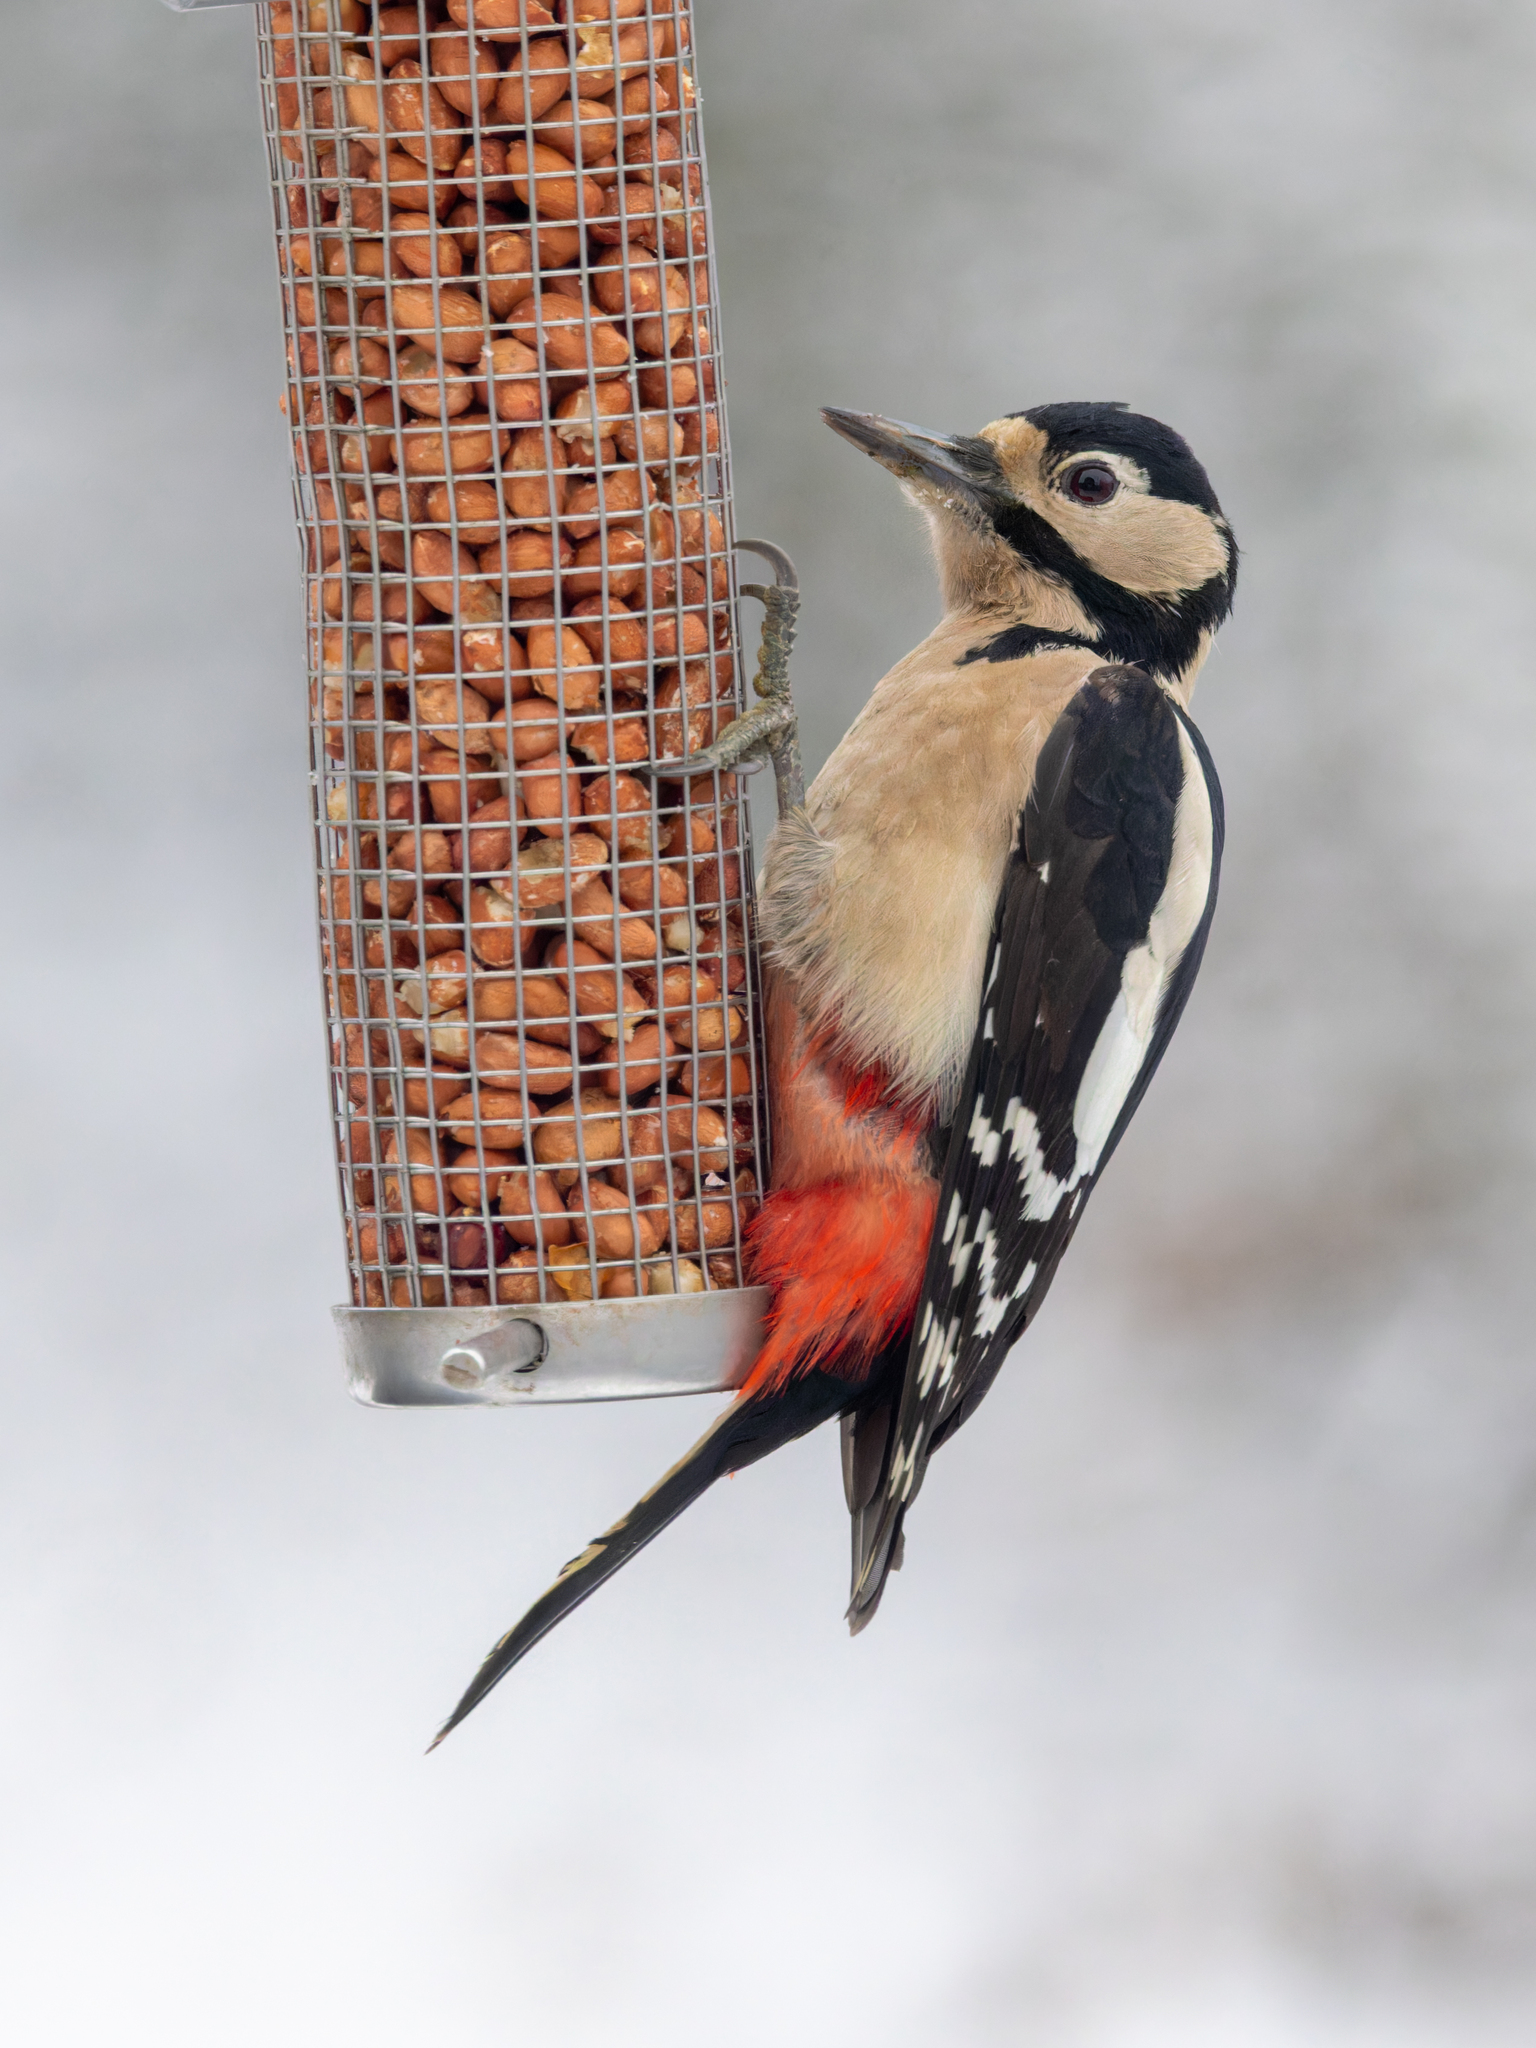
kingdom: Animalia
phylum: Chordata
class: Aves
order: Piciformes
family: Picidae
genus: Dendrocopos
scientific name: Dendrocopos major
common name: Great spotted woodpecker
